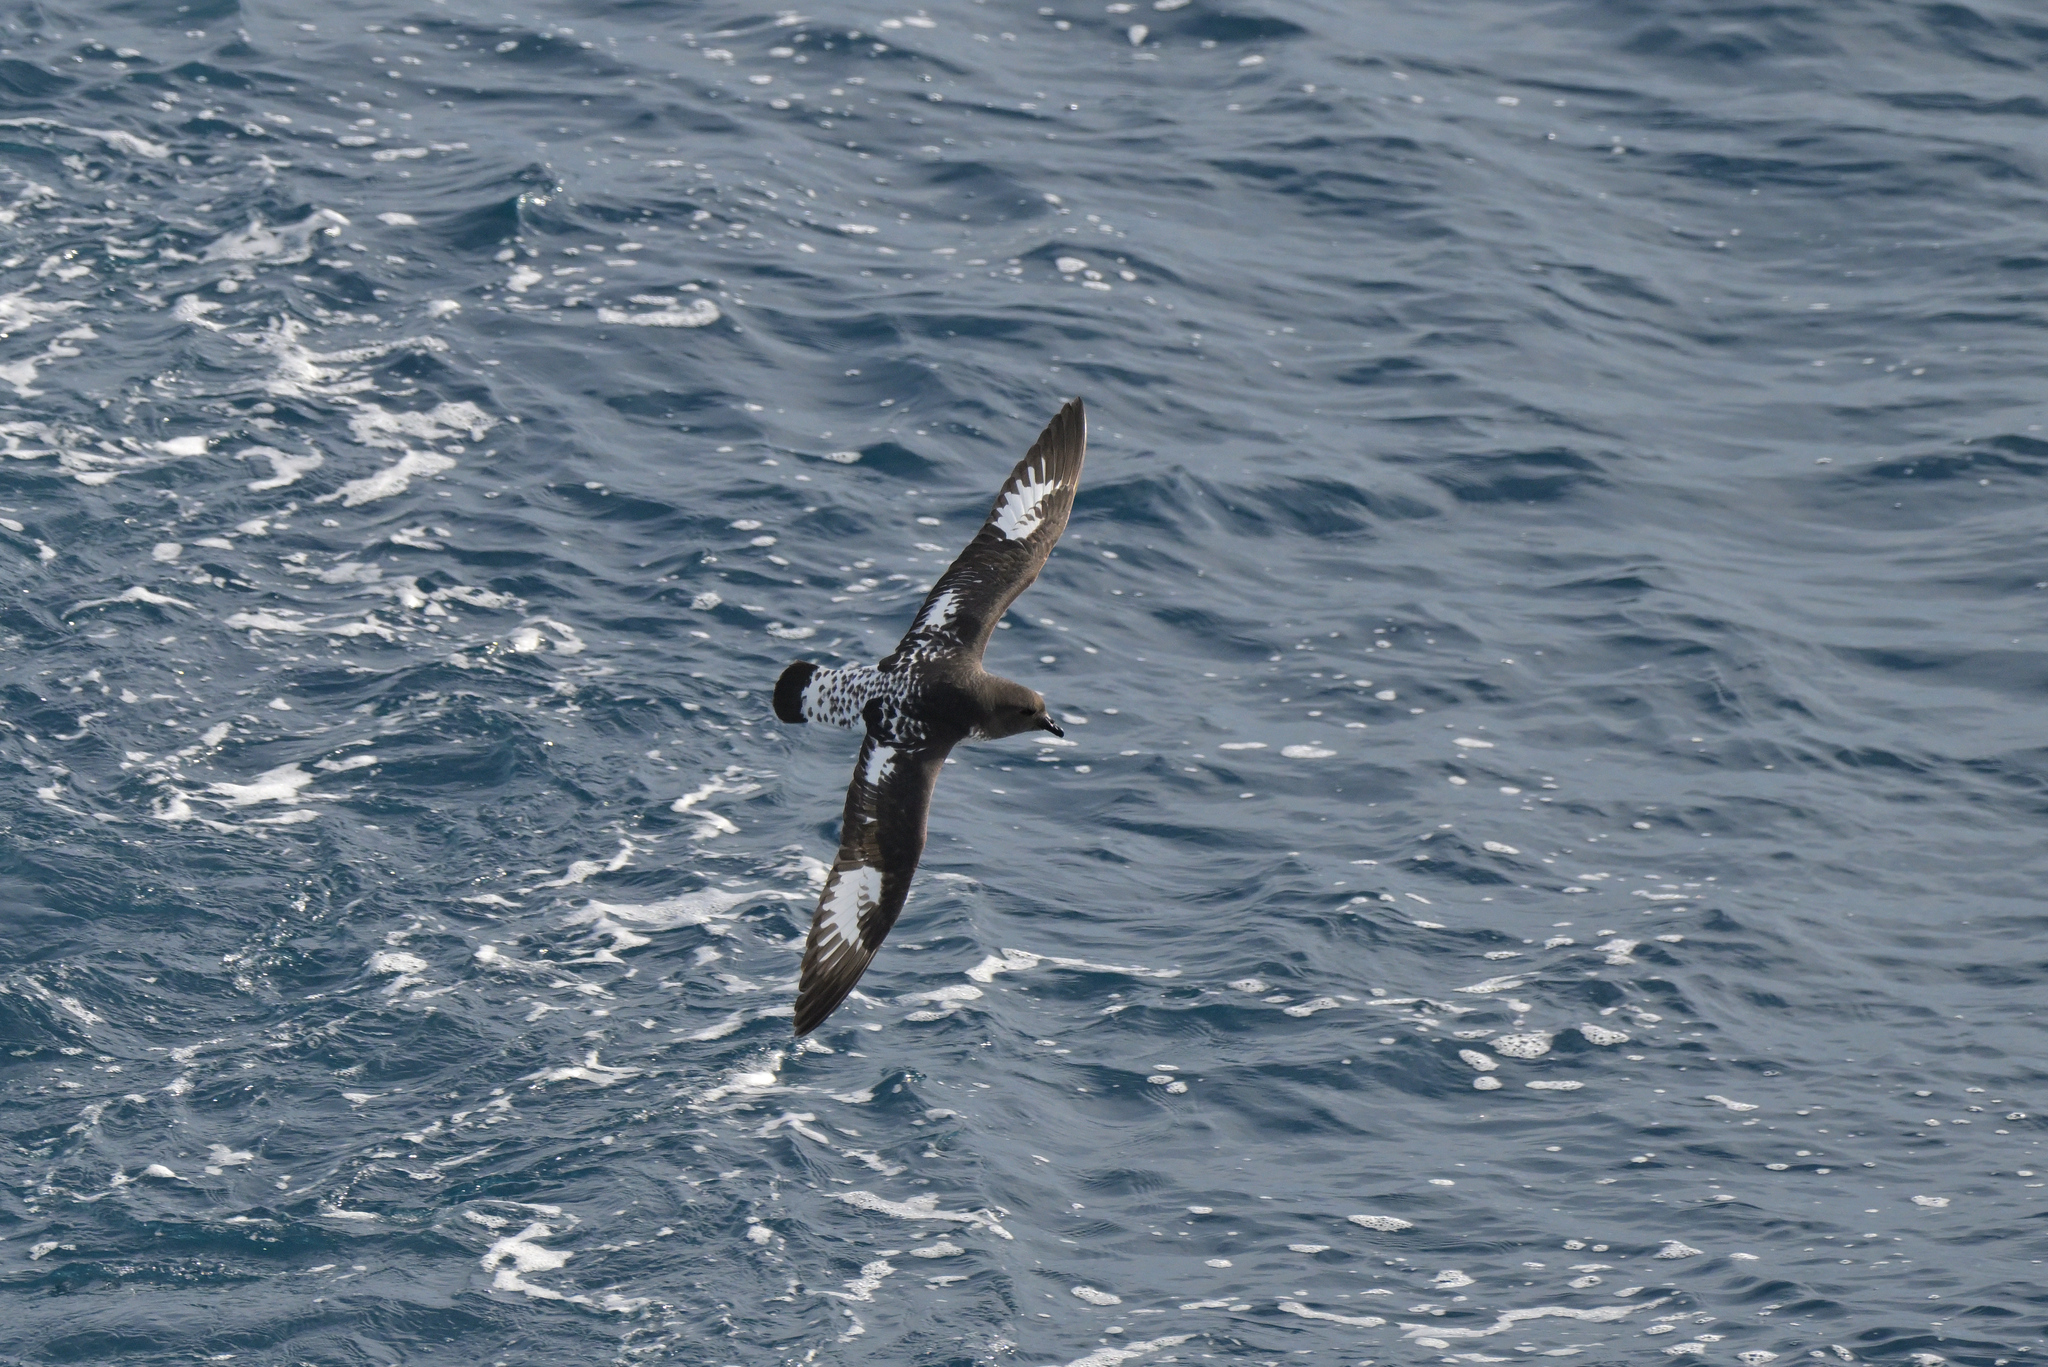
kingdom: Animalia
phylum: Chordata
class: Aves
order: Procellariiformes
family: Procellariidae
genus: Daption
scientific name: Daption capense
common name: Cape petrel
